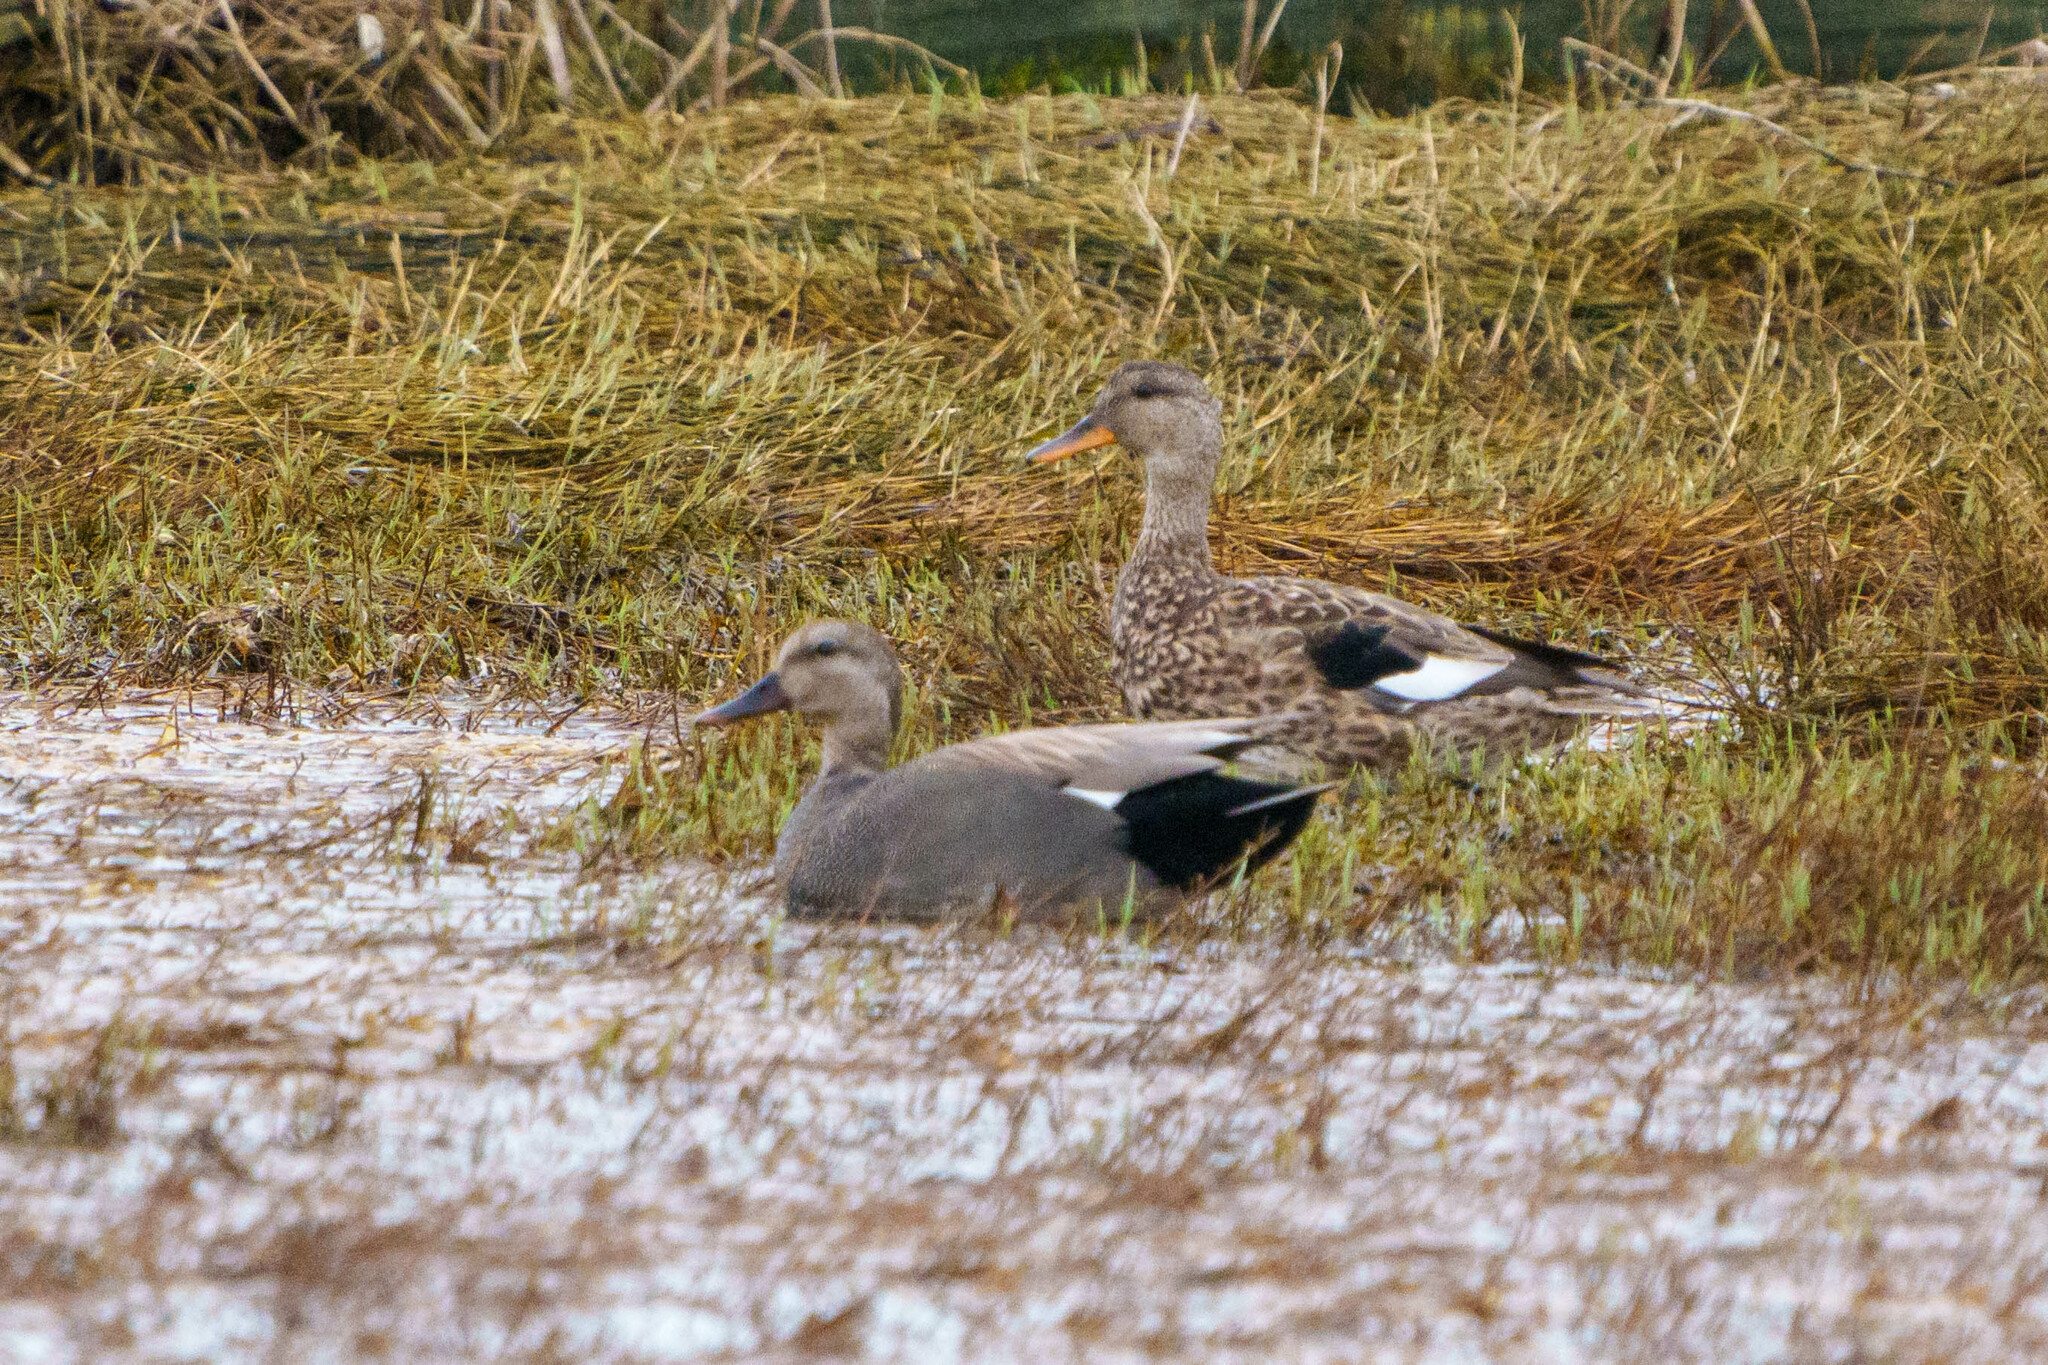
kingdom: Animalia
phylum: Chordata
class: Aves
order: Anseriformes
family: Anatidae
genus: Mareca
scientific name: Mareca strepera
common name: Gadwall
